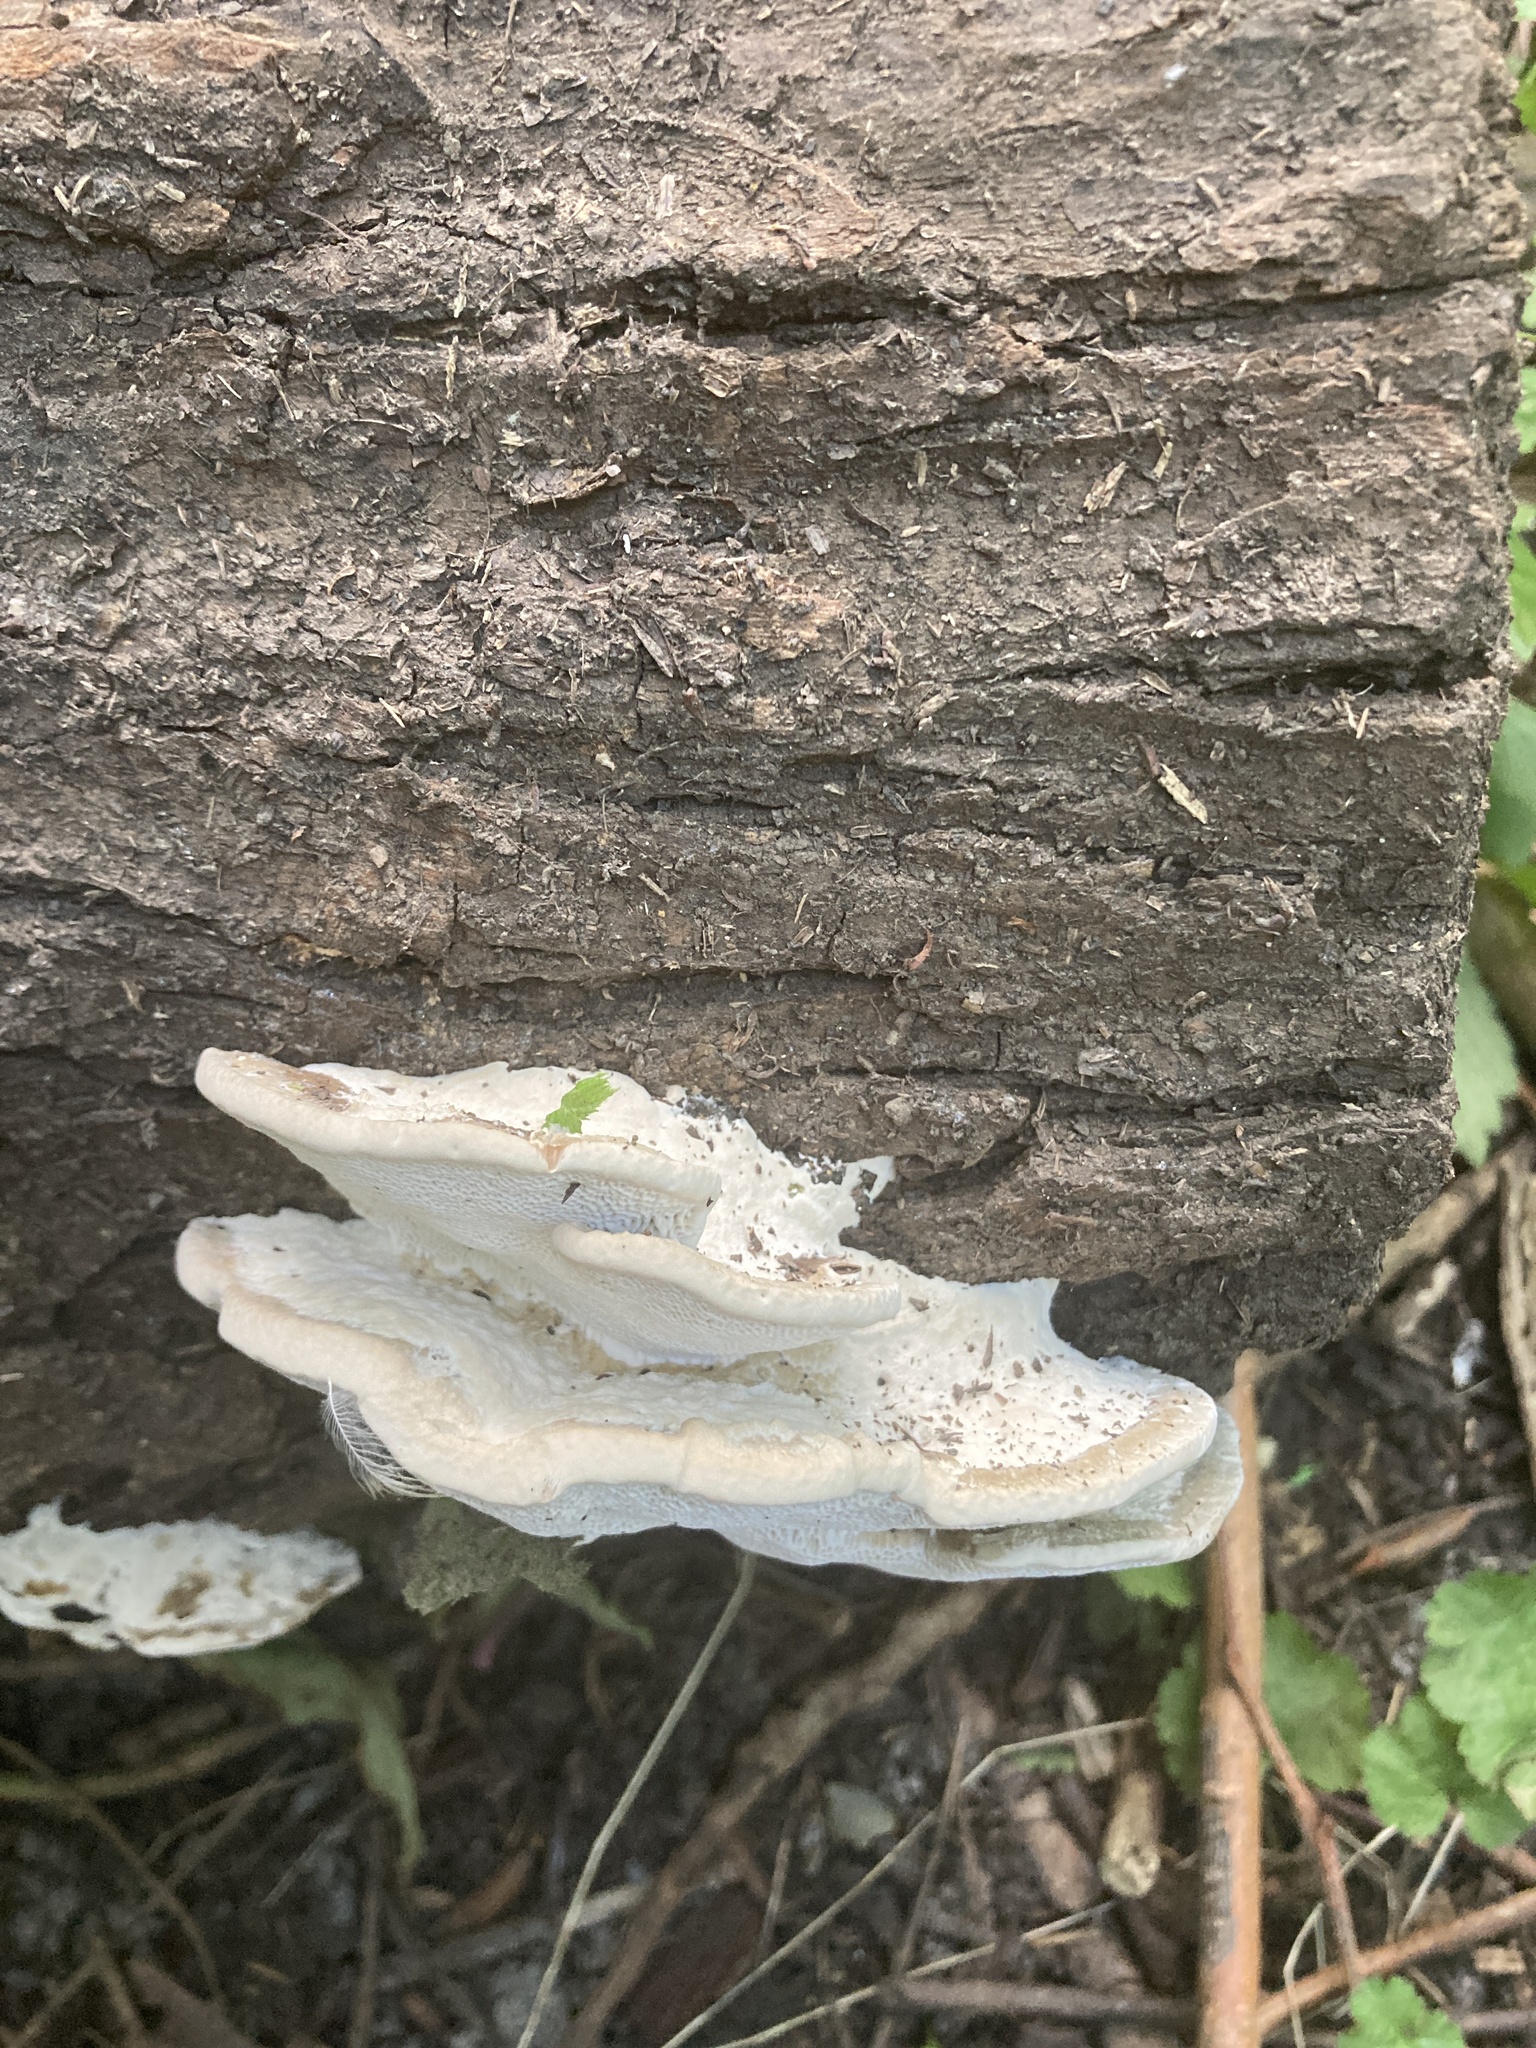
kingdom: Fungi
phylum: Basidiomycota
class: Agaricomycetes
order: Polyporales
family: Polyporaceae
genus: Trametes
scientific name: Trametes gibbosa
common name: Lumpy bracket
